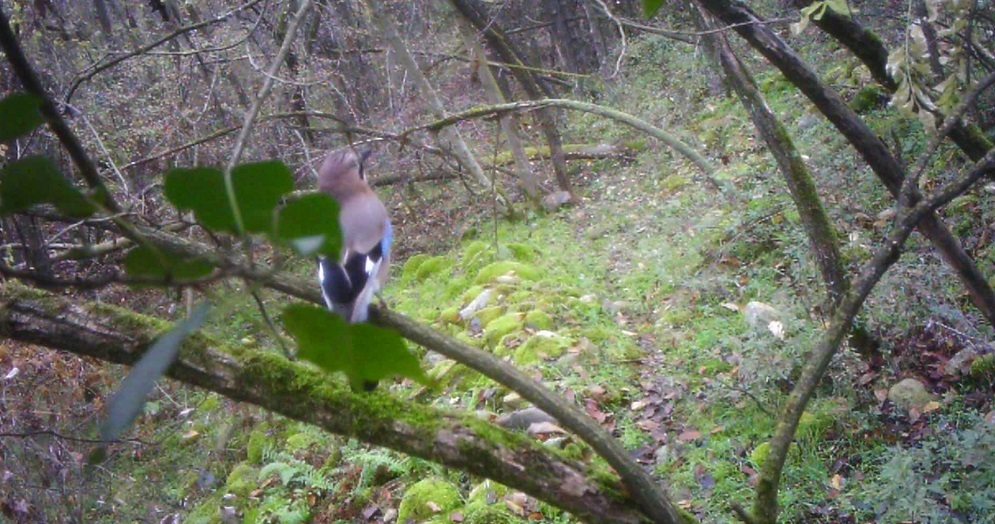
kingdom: Animalia
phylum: Chordata
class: Aves
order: Passeriformes
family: Corvidae
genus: Garrulus
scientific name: Garrulus glandarius
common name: Eurasian jay
